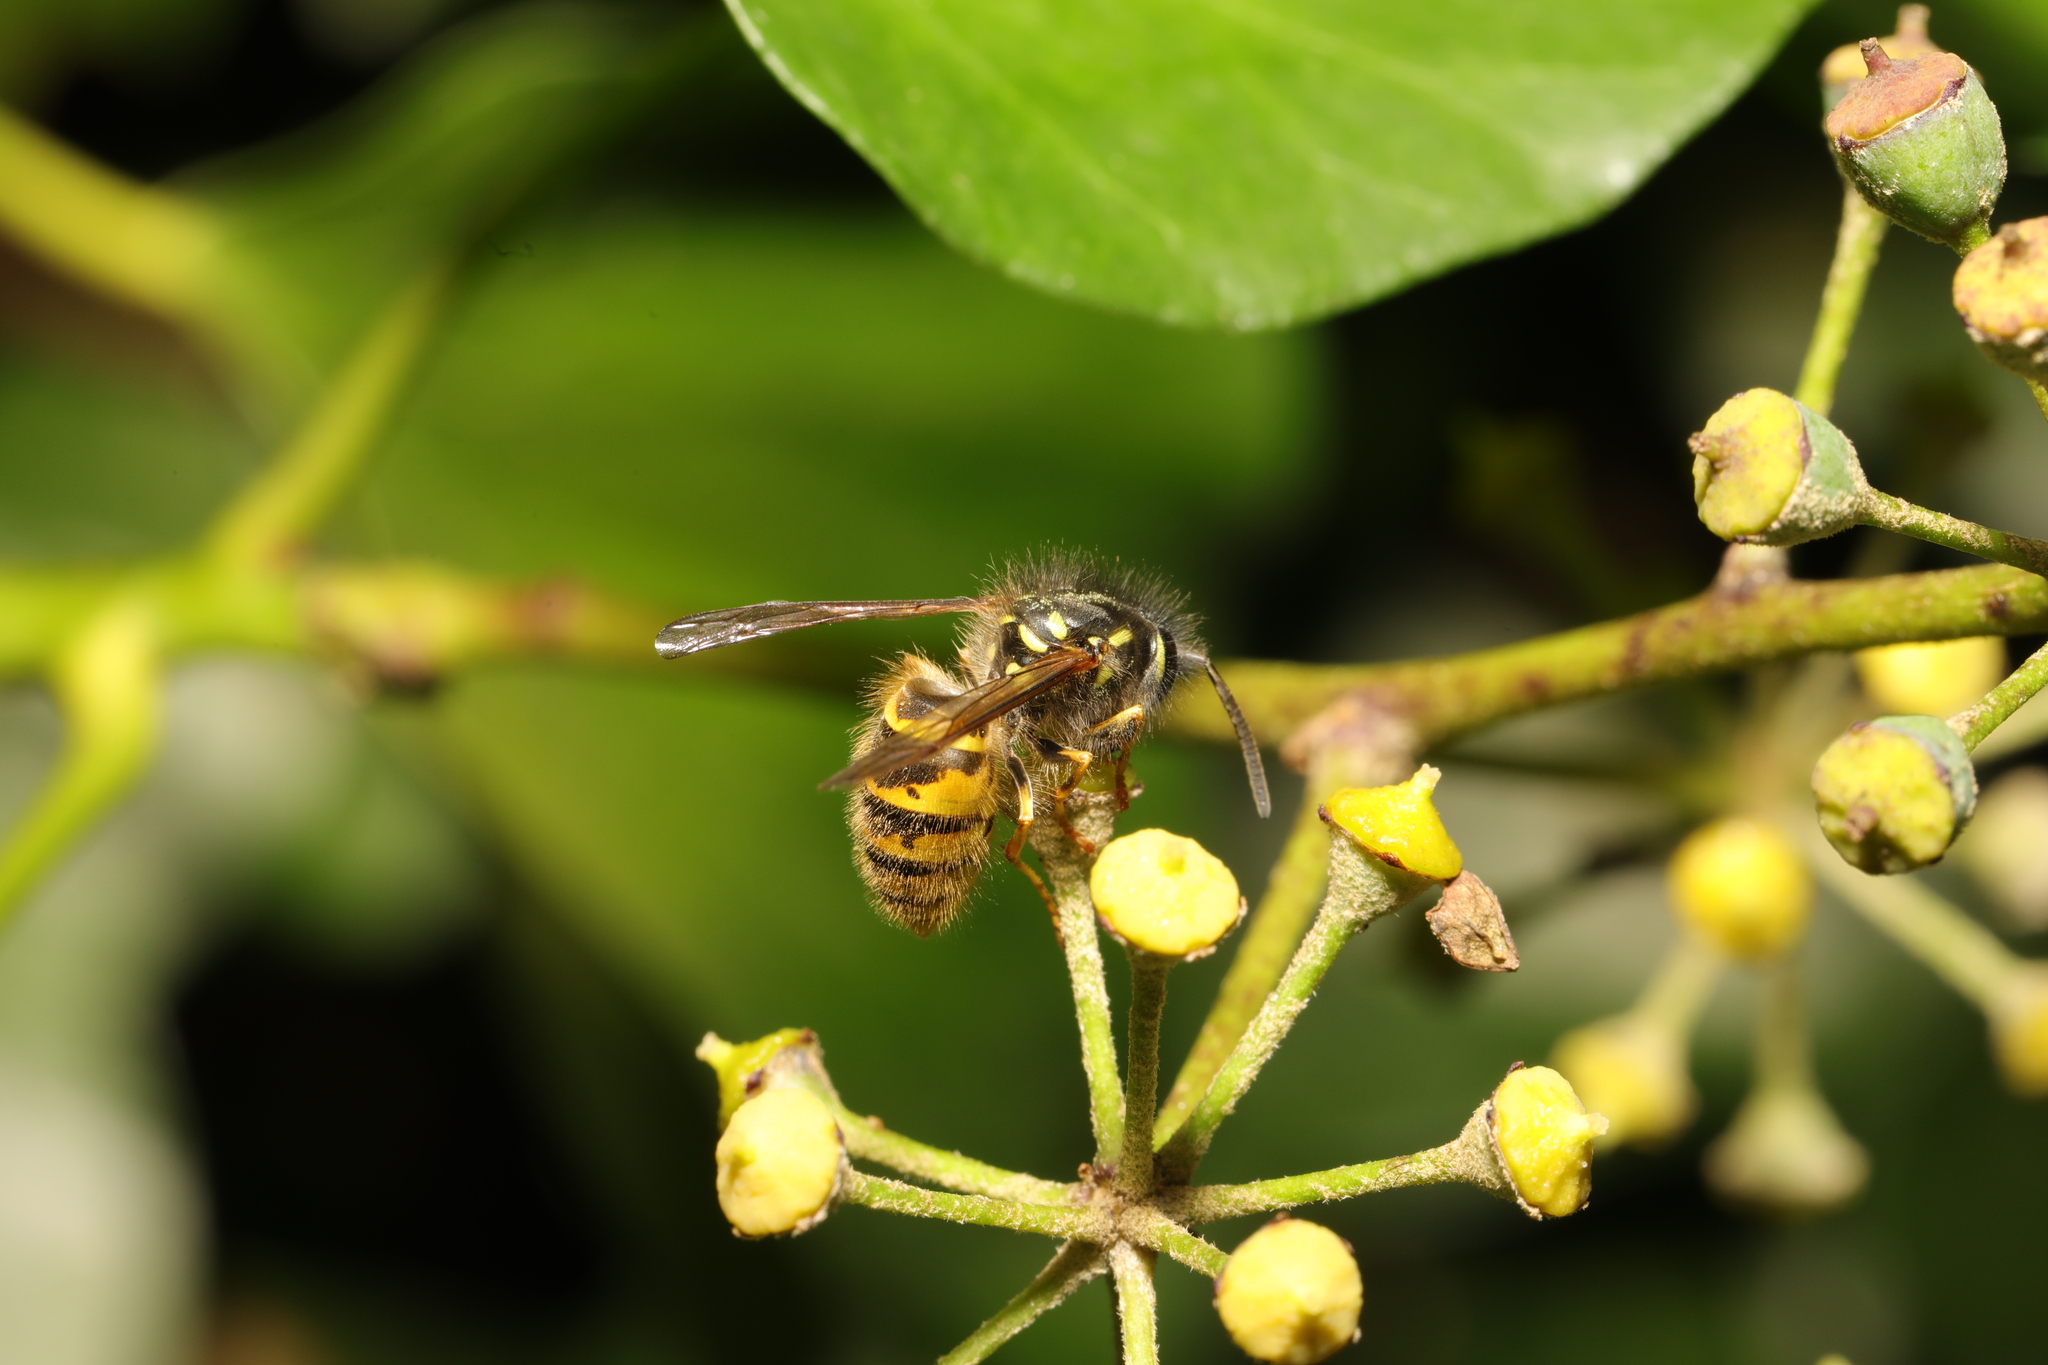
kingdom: Animalia
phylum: Arthropoda
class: Insecta
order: Hymenoptera
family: Vespidae
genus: Vespula
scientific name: Vespula vulgaris
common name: Common wasp
